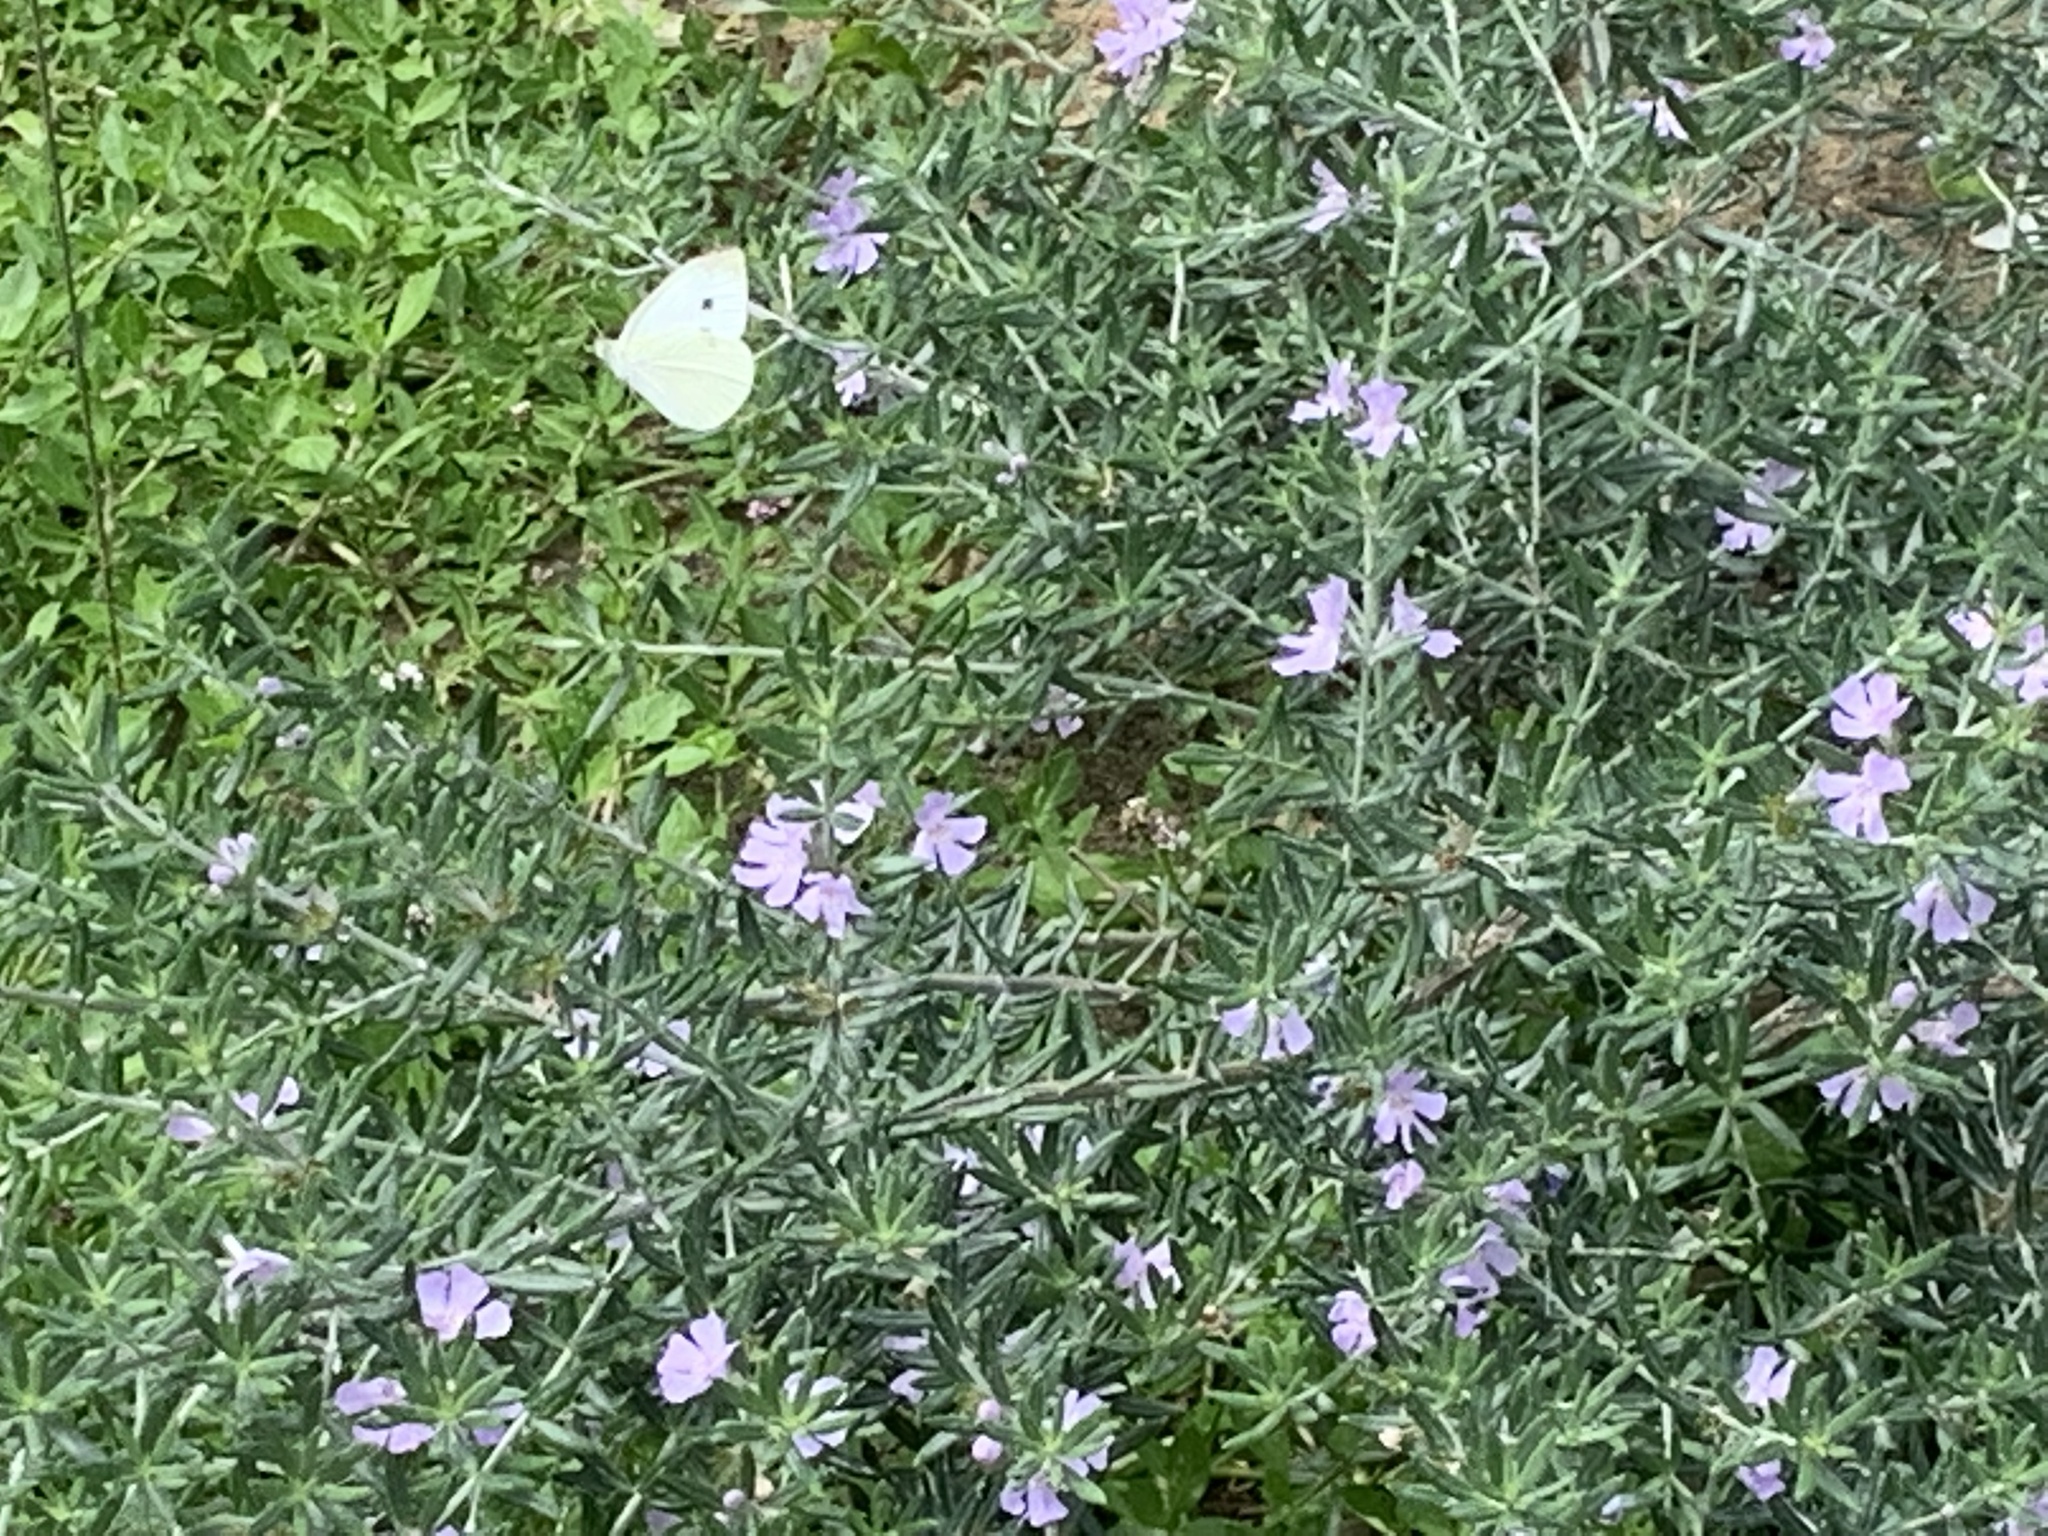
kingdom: Animalia
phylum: Arthropoda
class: Insecta
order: Lepidoptera
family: Pieridae
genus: Pieris
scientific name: Pieris rapae
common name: Small white
